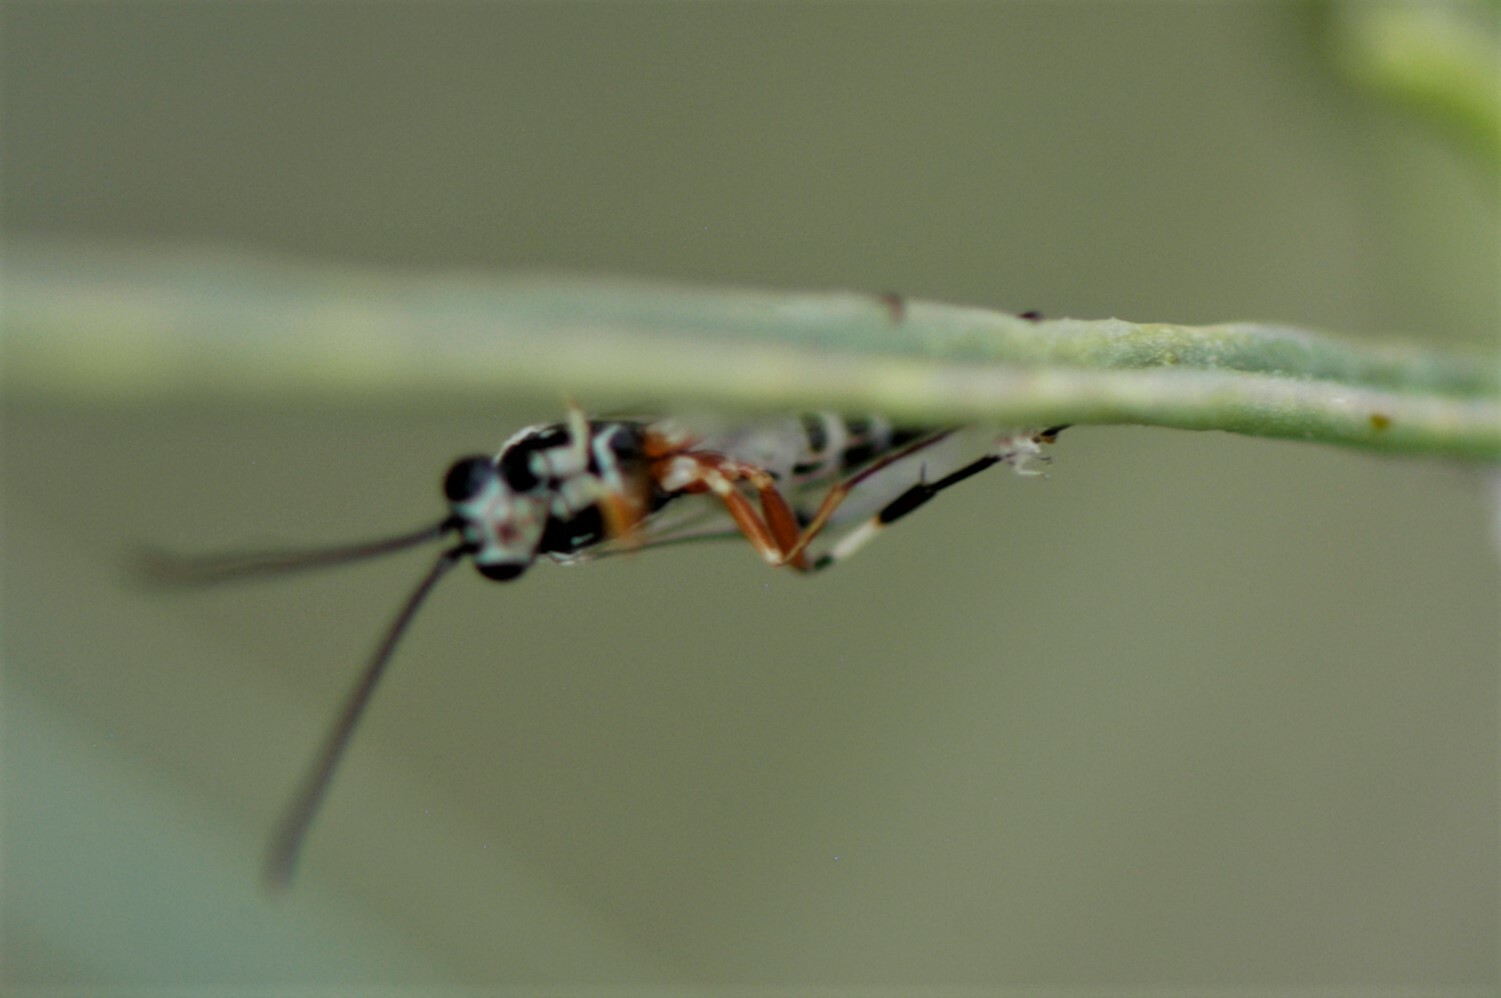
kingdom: Animalia
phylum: Arthropoda
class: Insecta
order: Hymenoptera
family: Ichneumonidae
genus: Diplazon
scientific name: Diplazon
